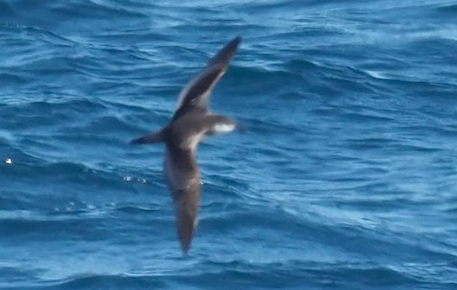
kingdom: Animalia
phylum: Chordata
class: Aves
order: Procellariiformes
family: Procellariidae
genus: Puffinus
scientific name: Puffinus bulleri
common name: Buller's shearwater
